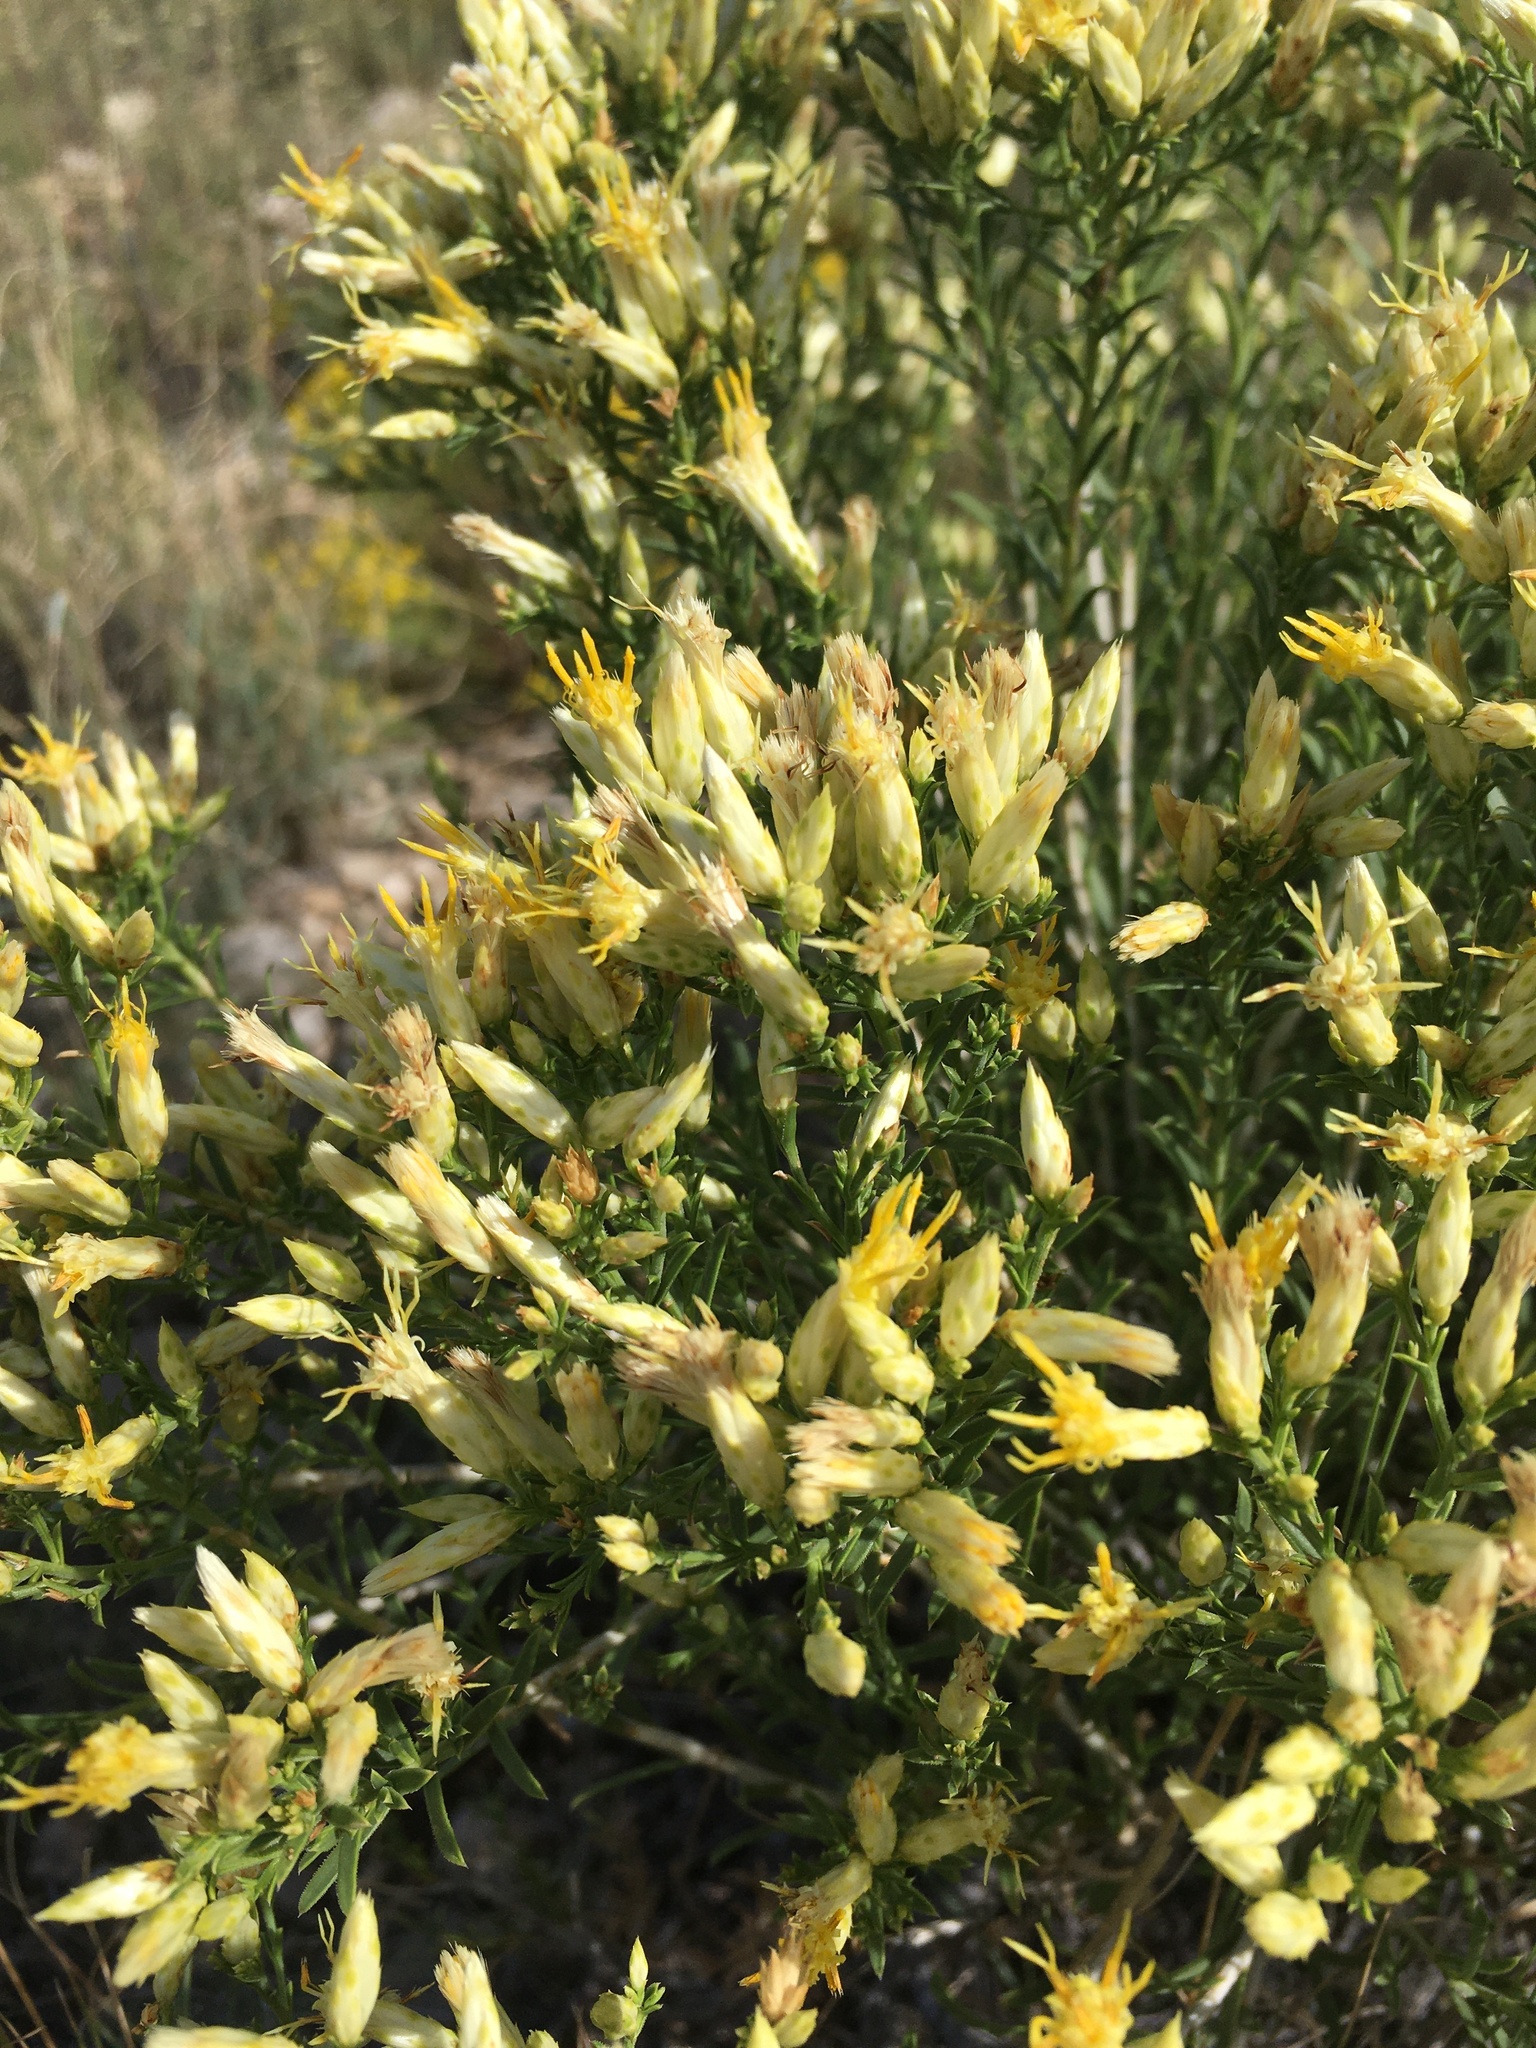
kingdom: Plantae
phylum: Tracheophyta
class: Magnoliopsida
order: Asterales
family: Asteraceae
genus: Lorandersonia
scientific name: Lorandersonia baileyi
